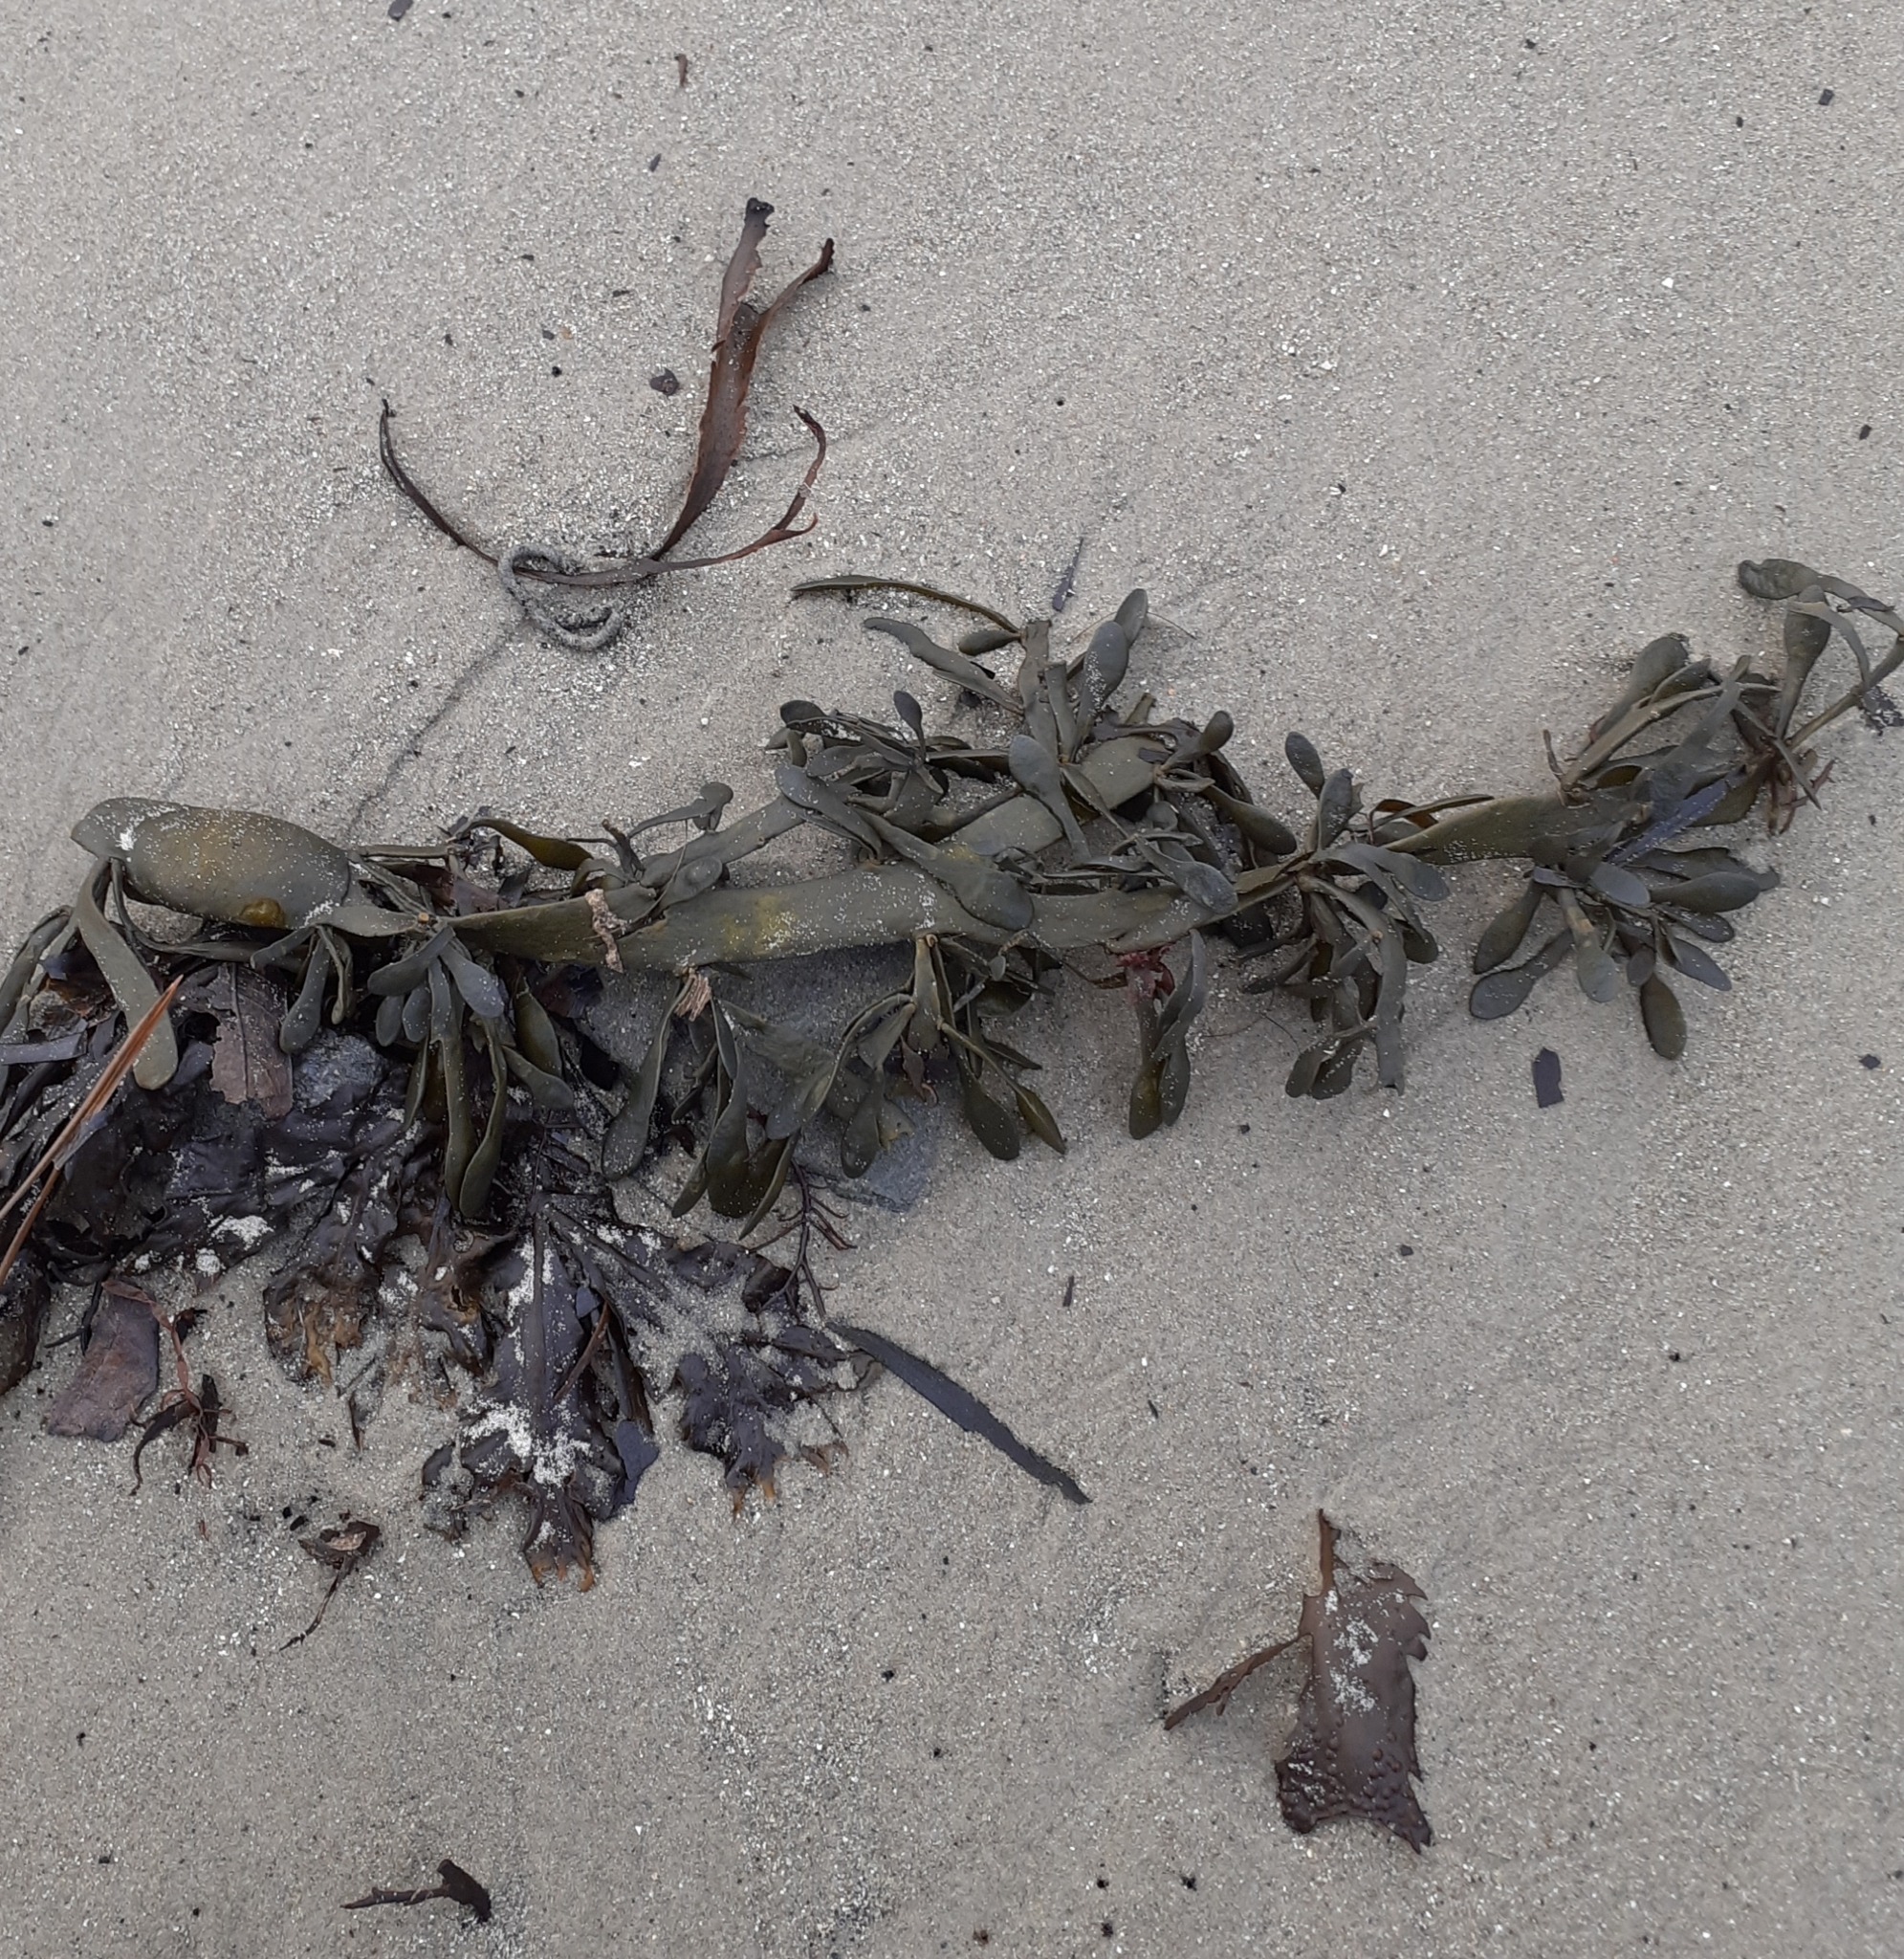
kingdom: Chromista
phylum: Ochrophyta
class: Phaeophyceae
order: Fucales
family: Fucaceae
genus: Ascophyllum
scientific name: Ascophyllum nodosum
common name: Knotted wrack
